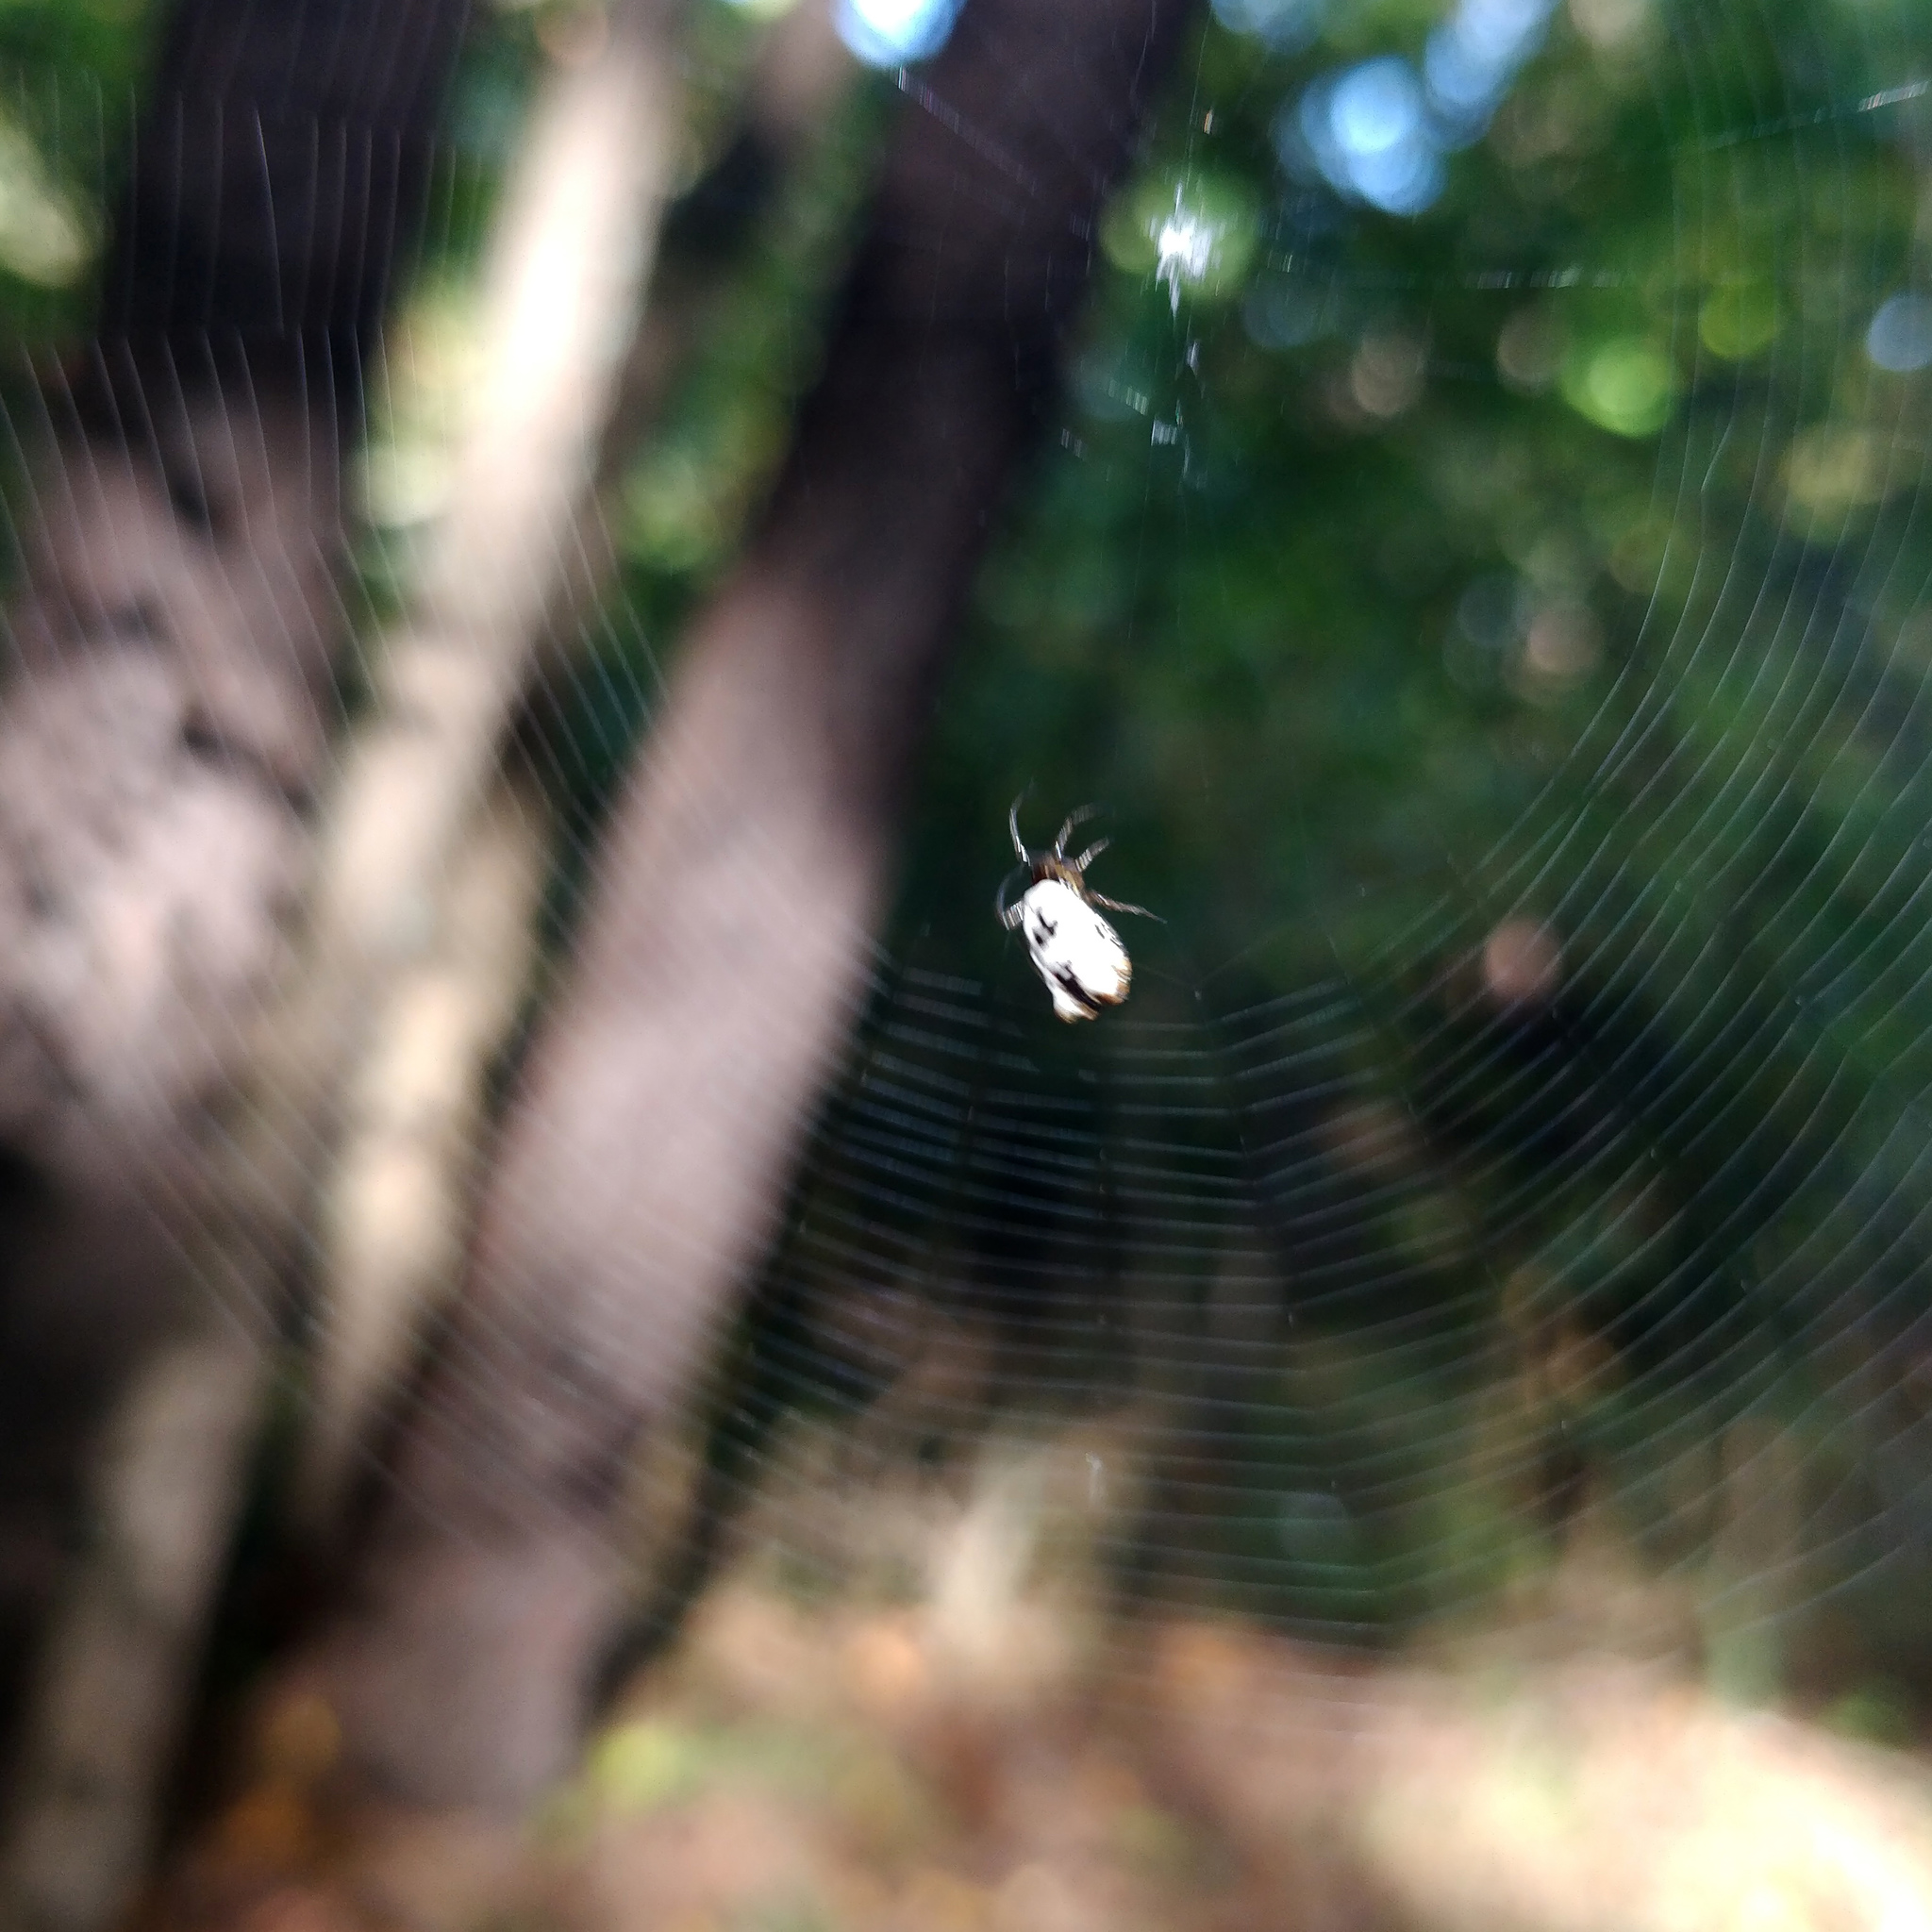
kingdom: Animalia
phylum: Arthropoda
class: Arachnida
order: Araneae
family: Araneidae
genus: Micrathena
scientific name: Micrathena mitrata
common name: Orb weavers
